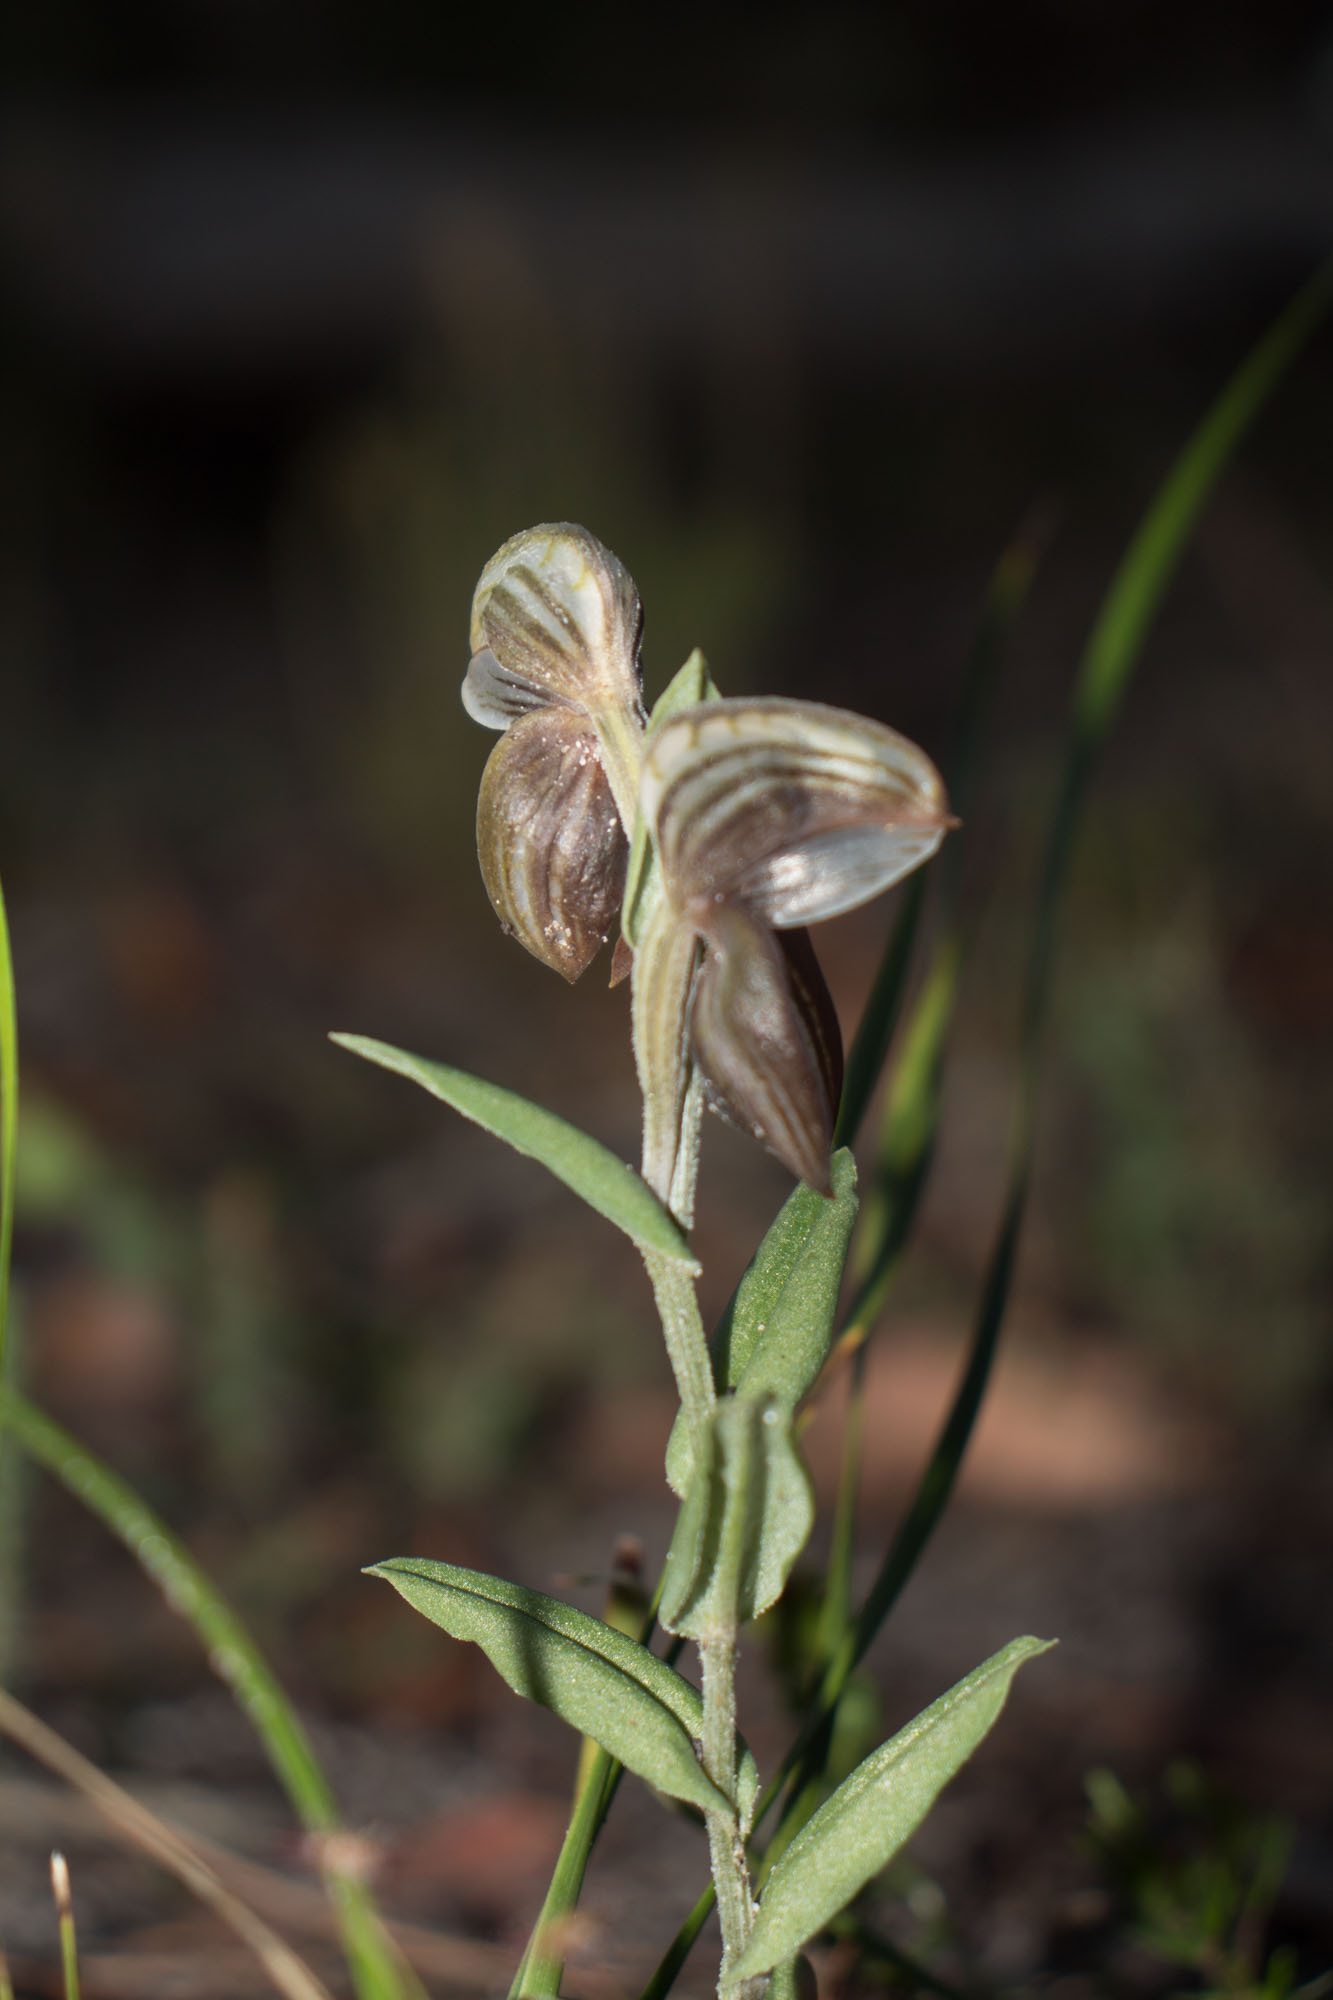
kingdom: Plantae
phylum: Tracheophyta
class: Liliopsida
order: Asparagales
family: Orchidaceae
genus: Pterostylis
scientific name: Pterostylis concava
